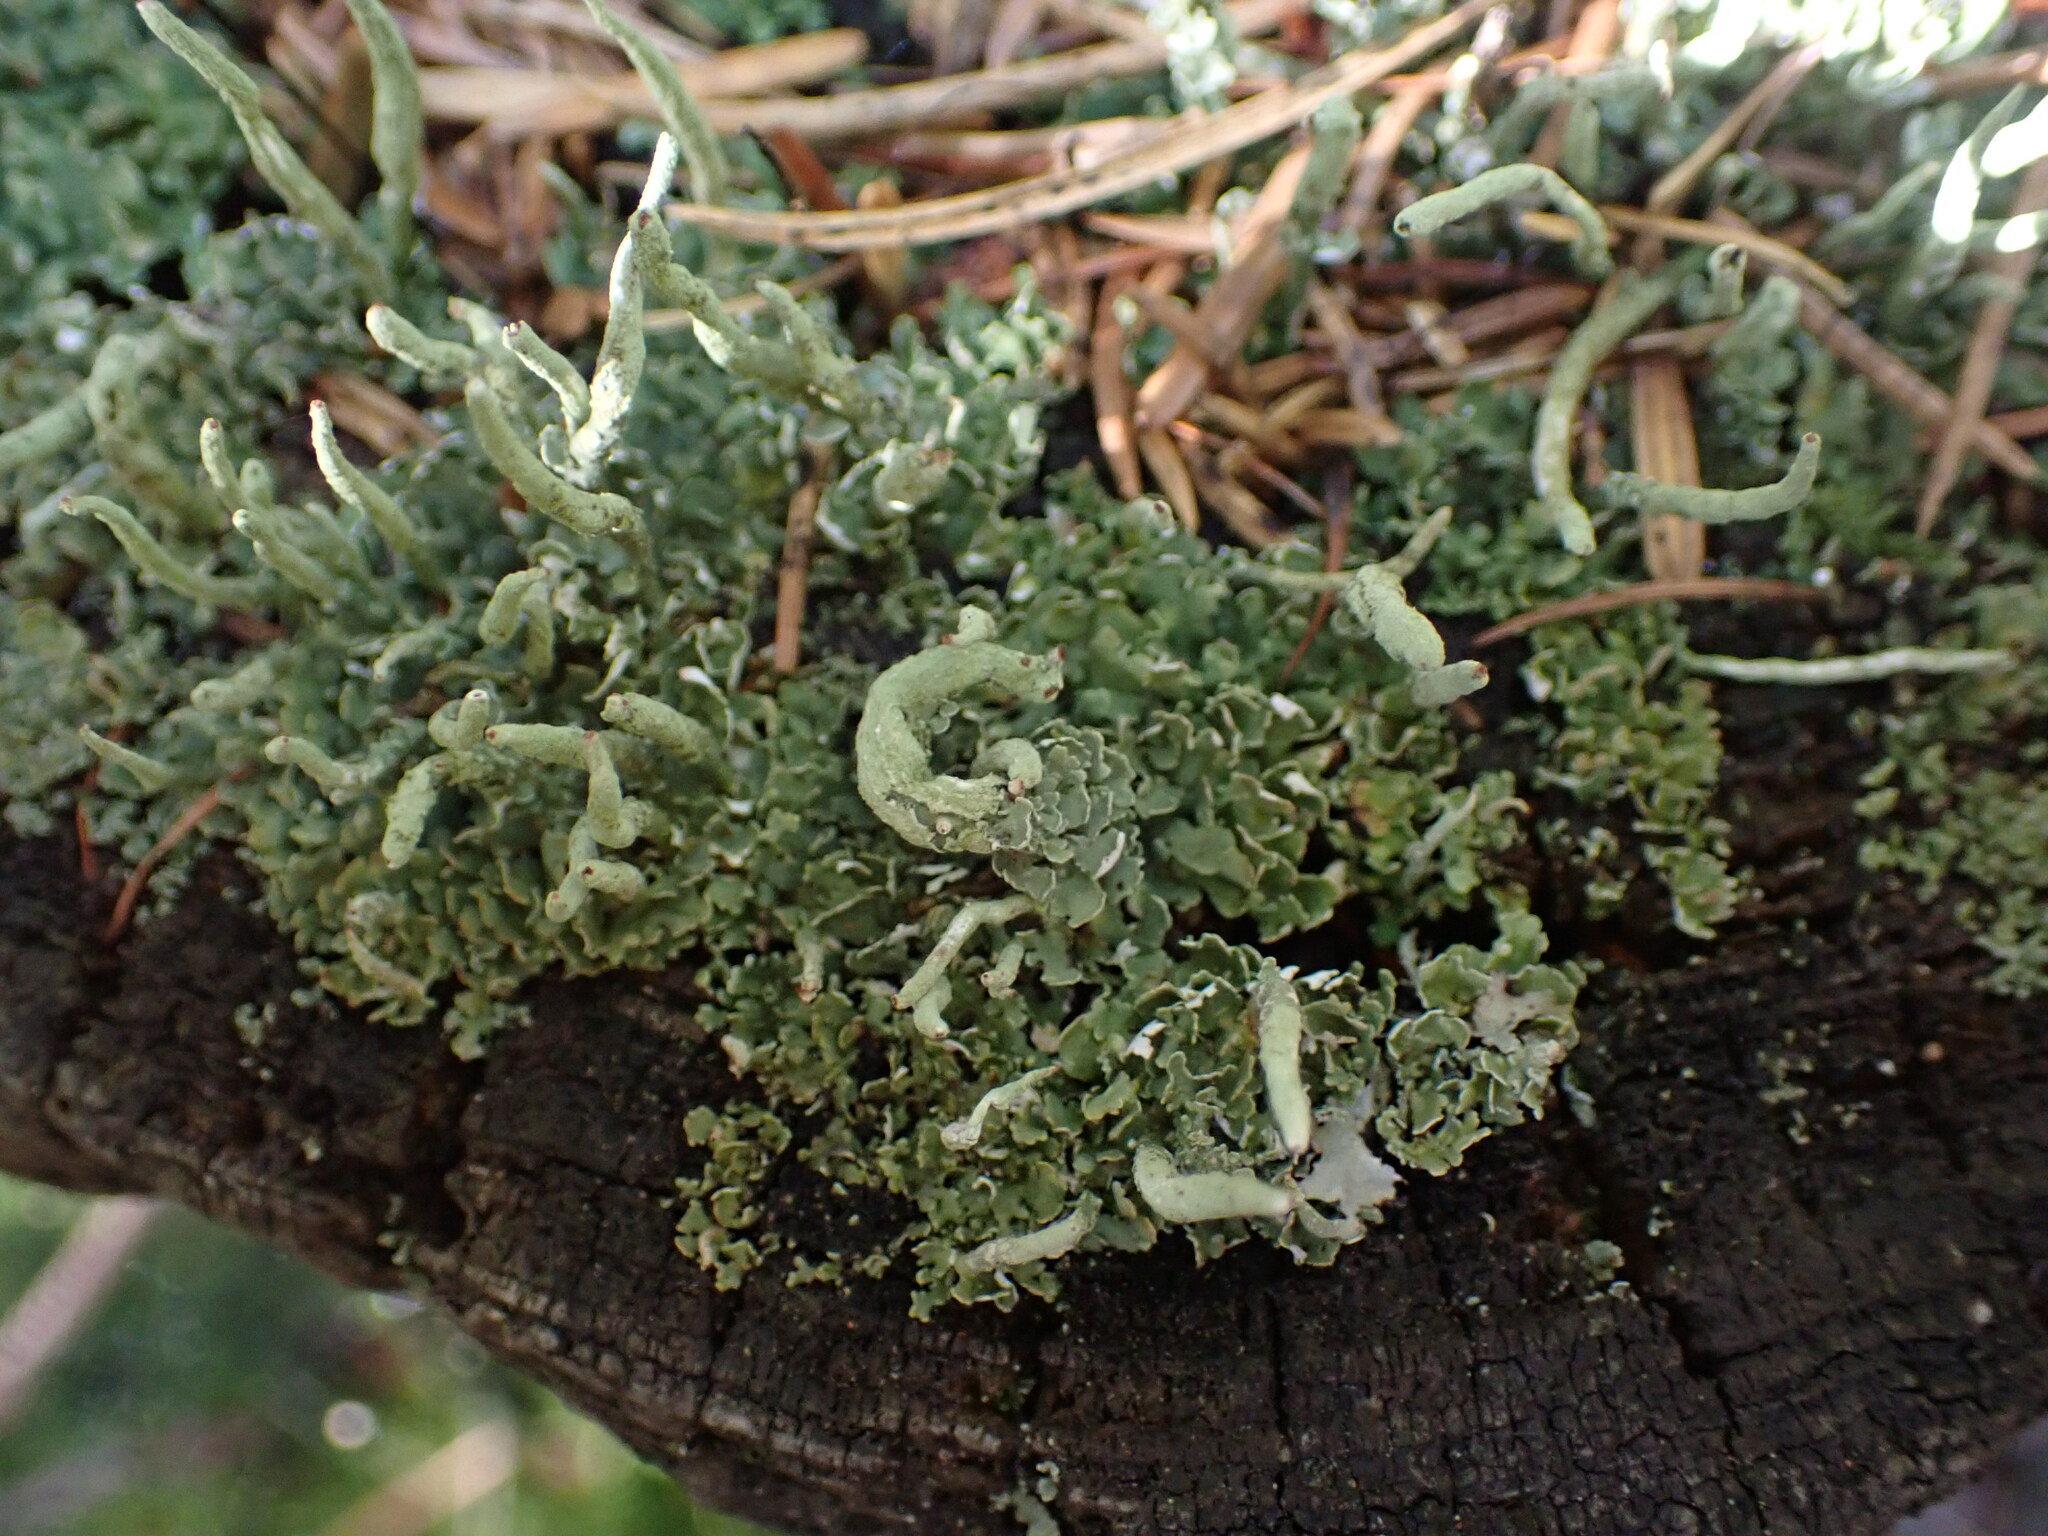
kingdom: Fungi
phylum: Ascomycota
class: Lecanoromycetes
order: Lecanorales
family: Cladoniaceae
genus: Cladonia
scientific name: Cladonia coniocraea
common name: Common powderhorn
